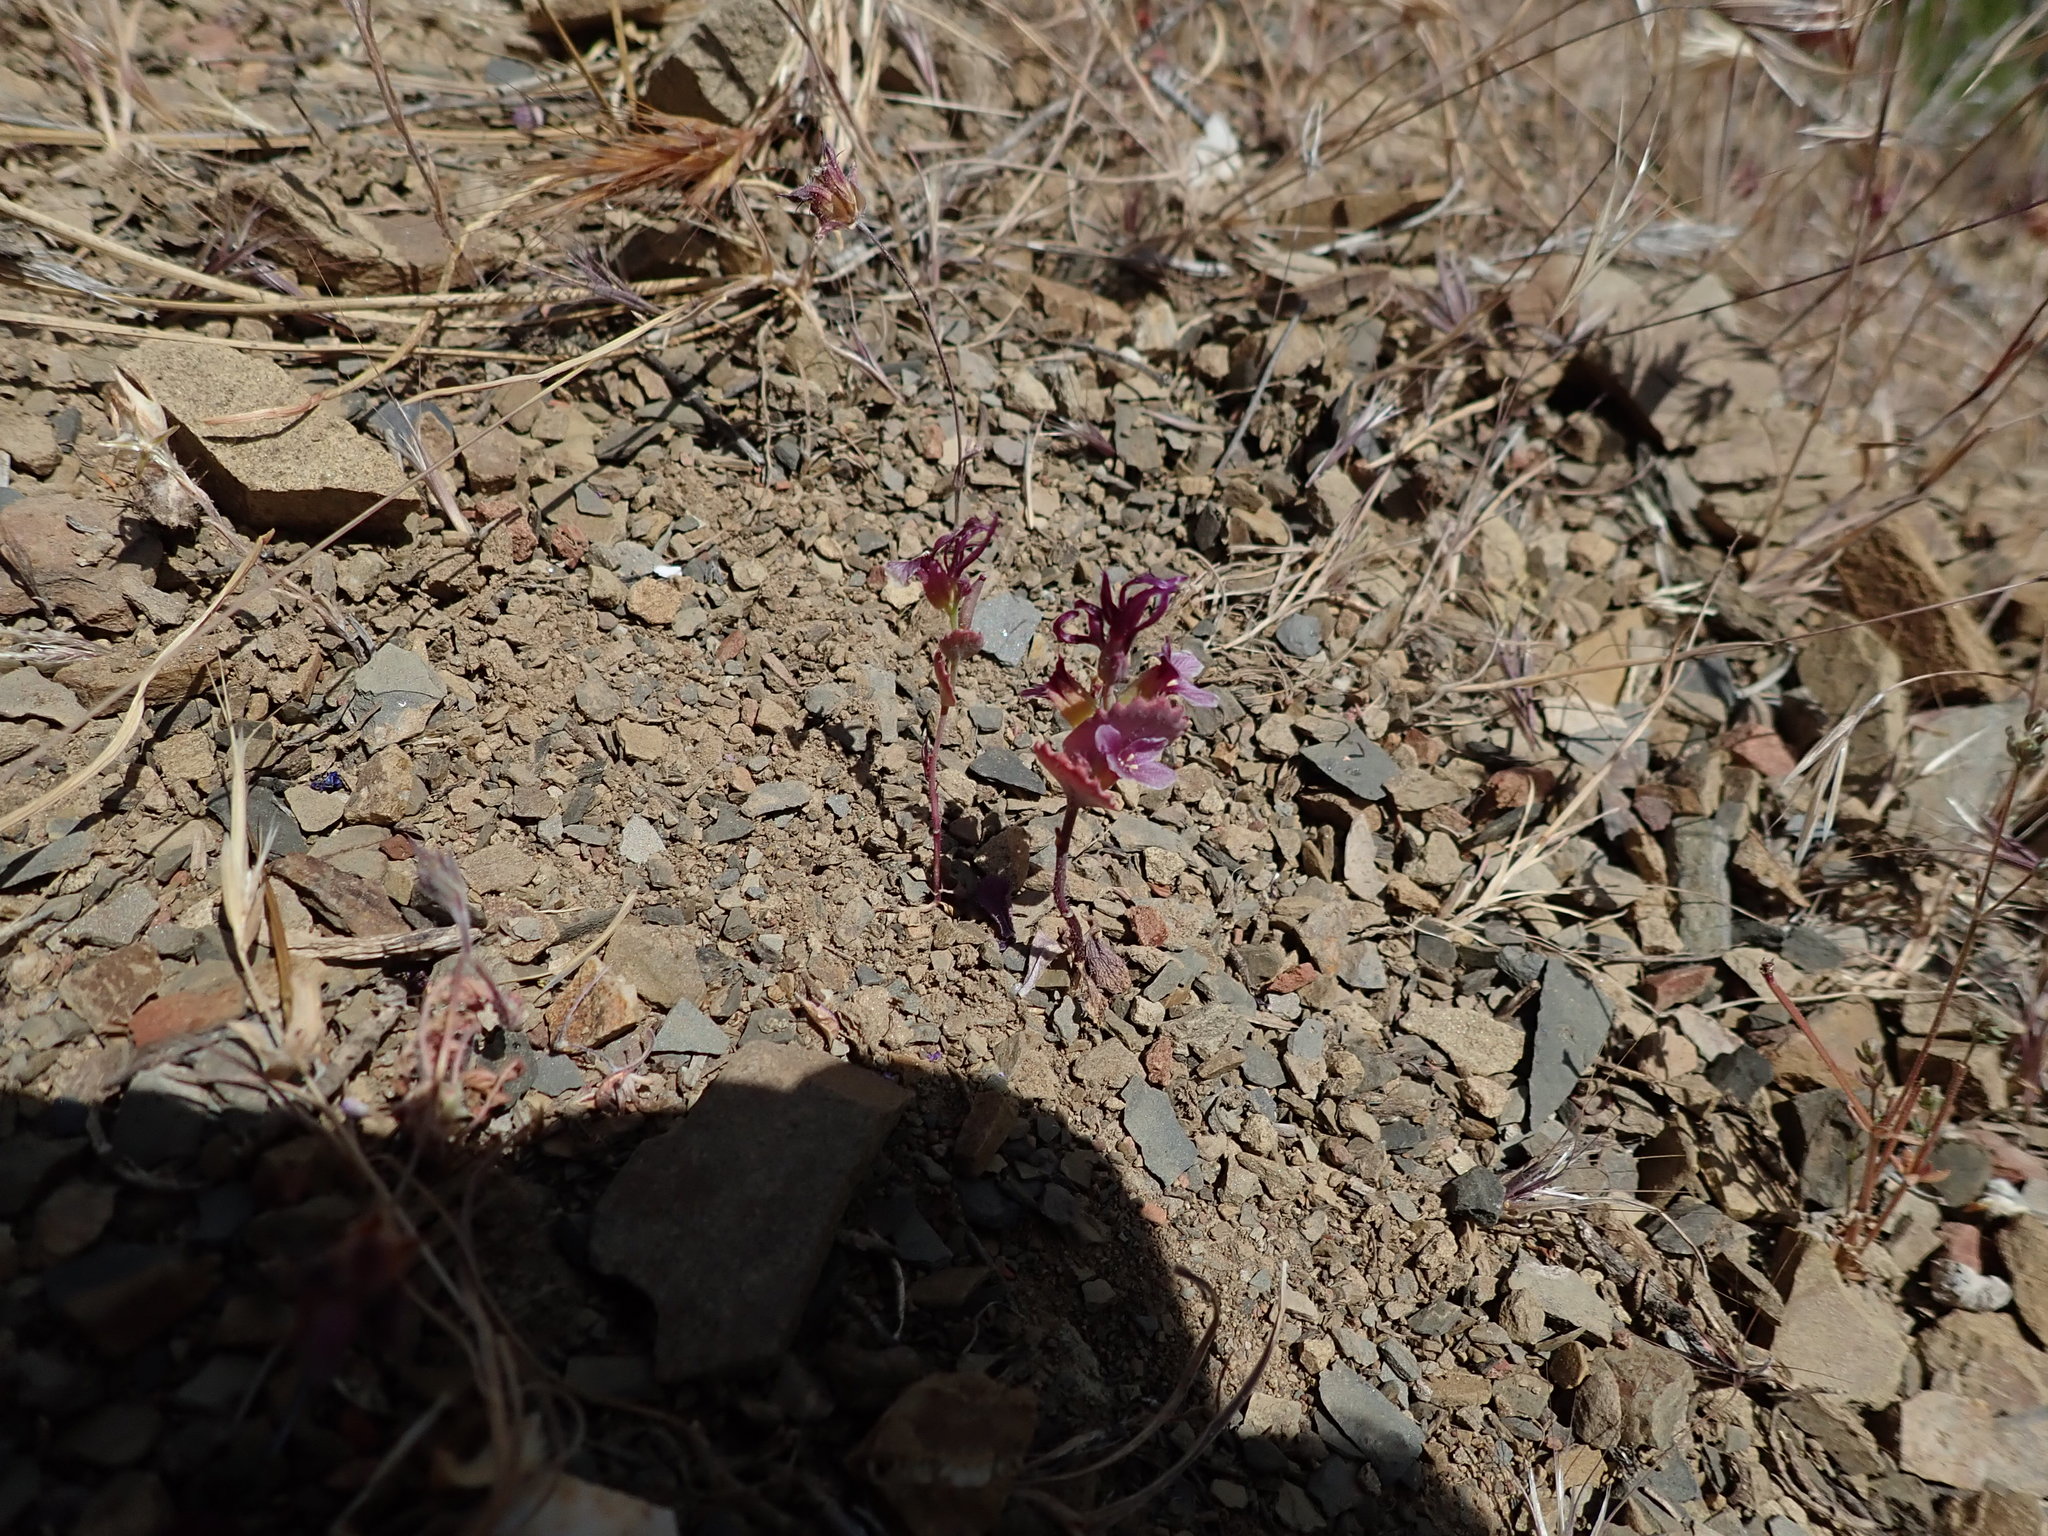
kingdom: Plantae
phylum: Tracheophyta
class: Magnoliopsida
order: Brassicales
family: Brassicaceae
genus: Streptanthus
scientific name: Streptanthus callistus
